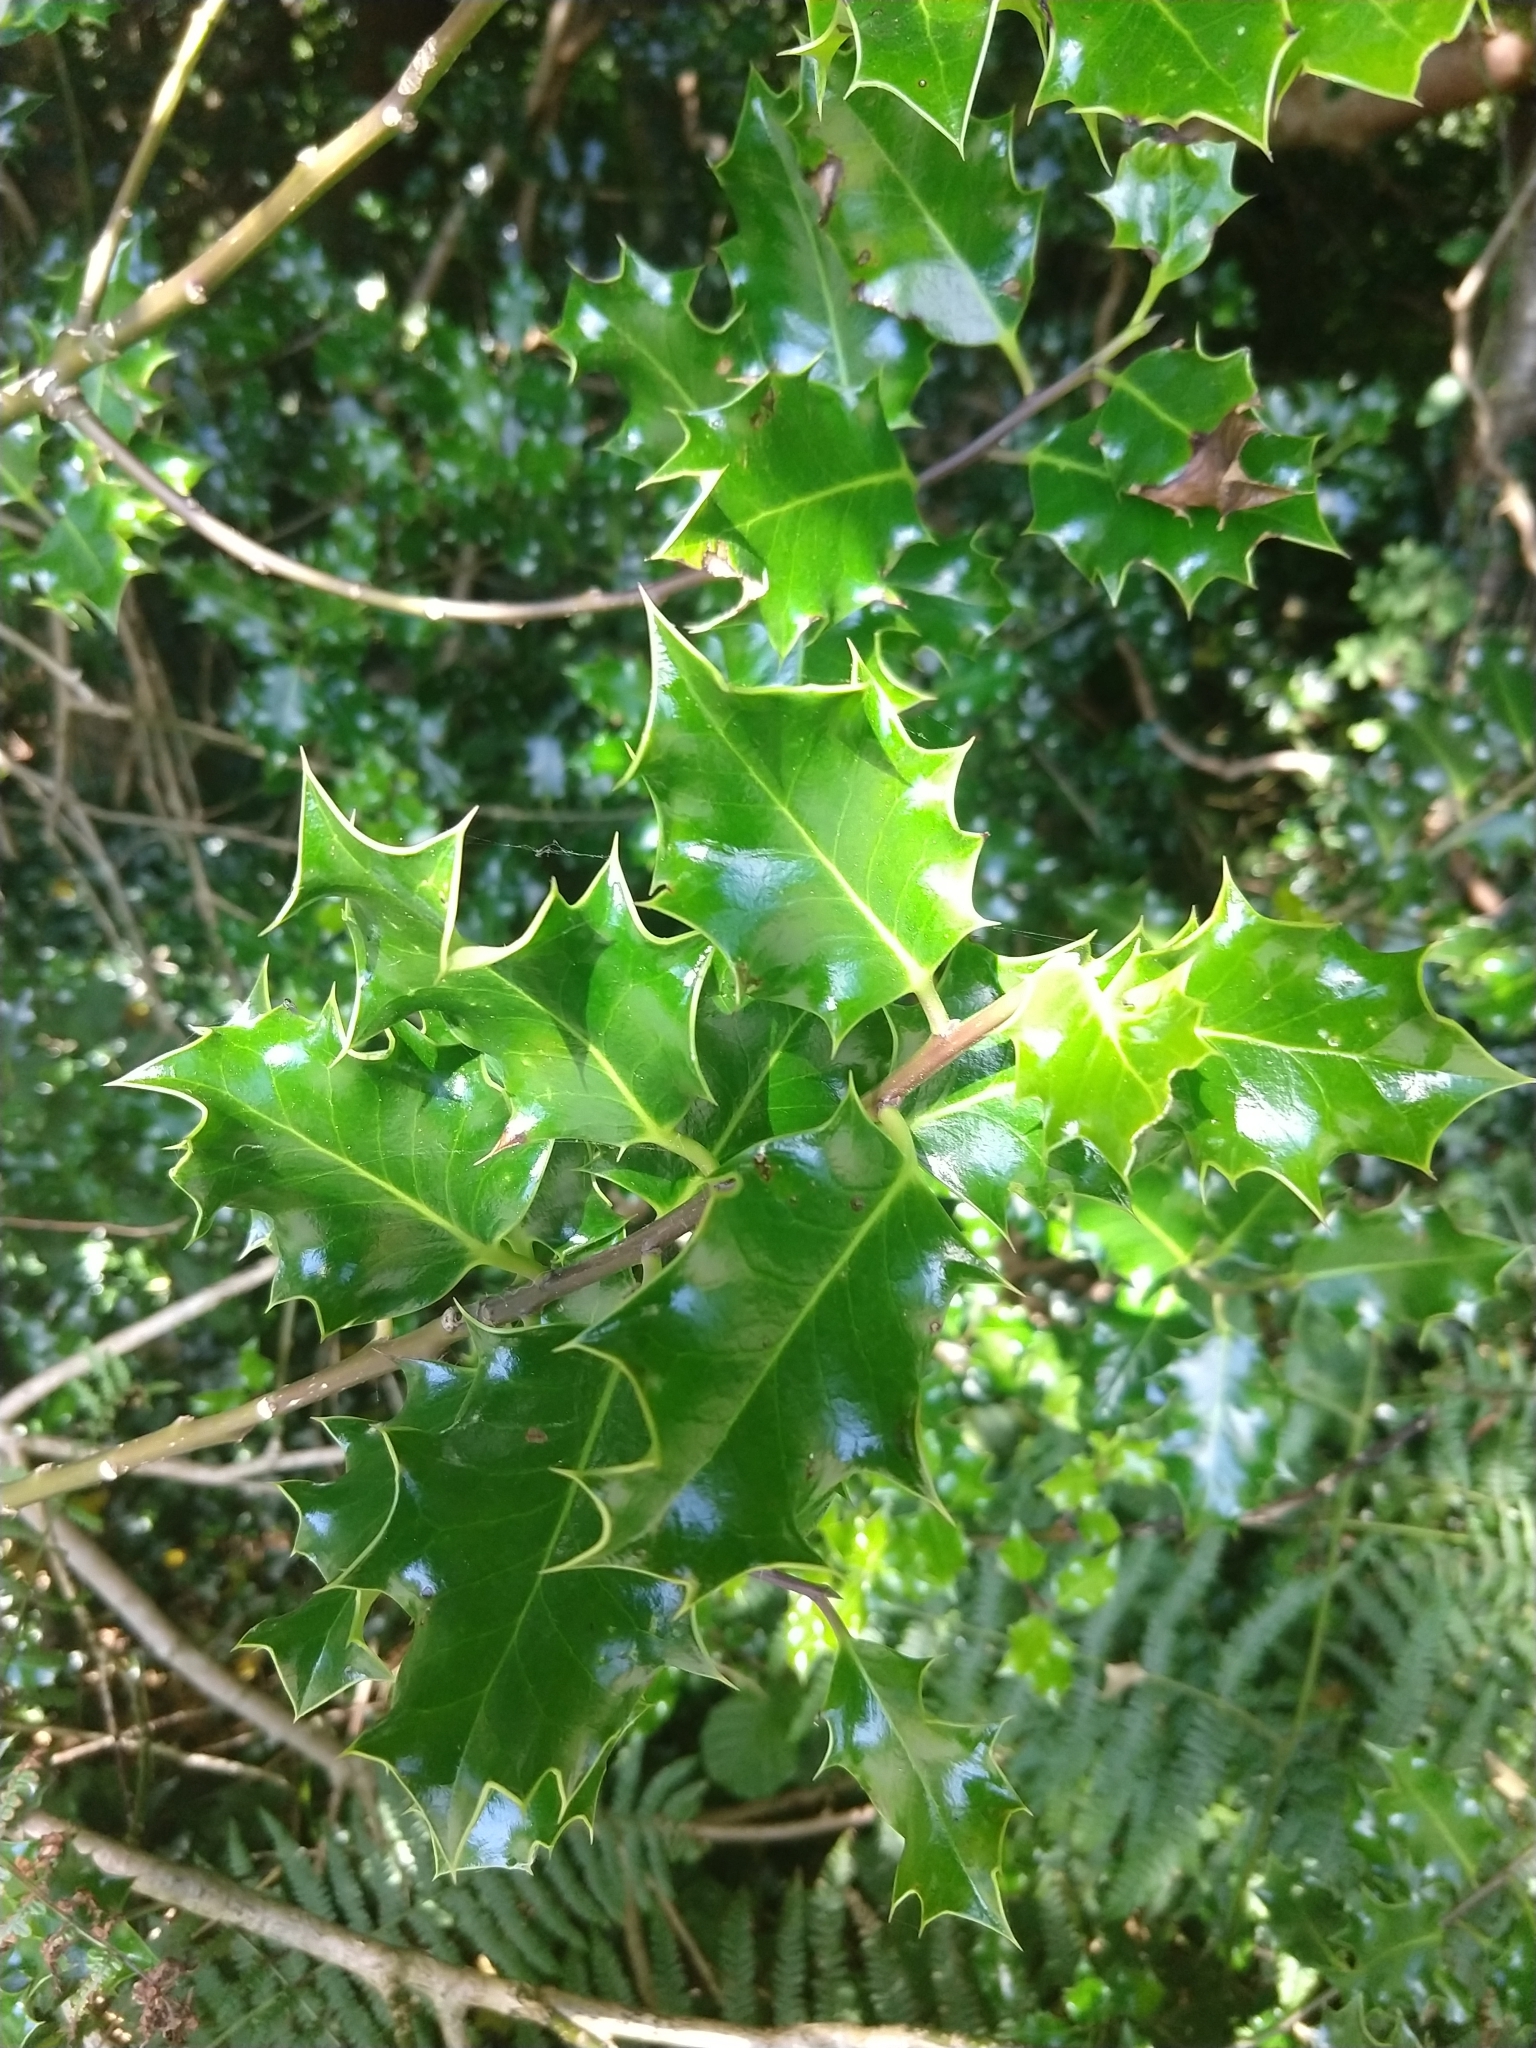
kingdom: Plantae
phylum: Tracheophyta
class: Magnoliopsida
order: Aquifoliales
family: Aquifoliaceae
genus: Ilex
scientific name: Ilex aquifolium
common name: English holly
